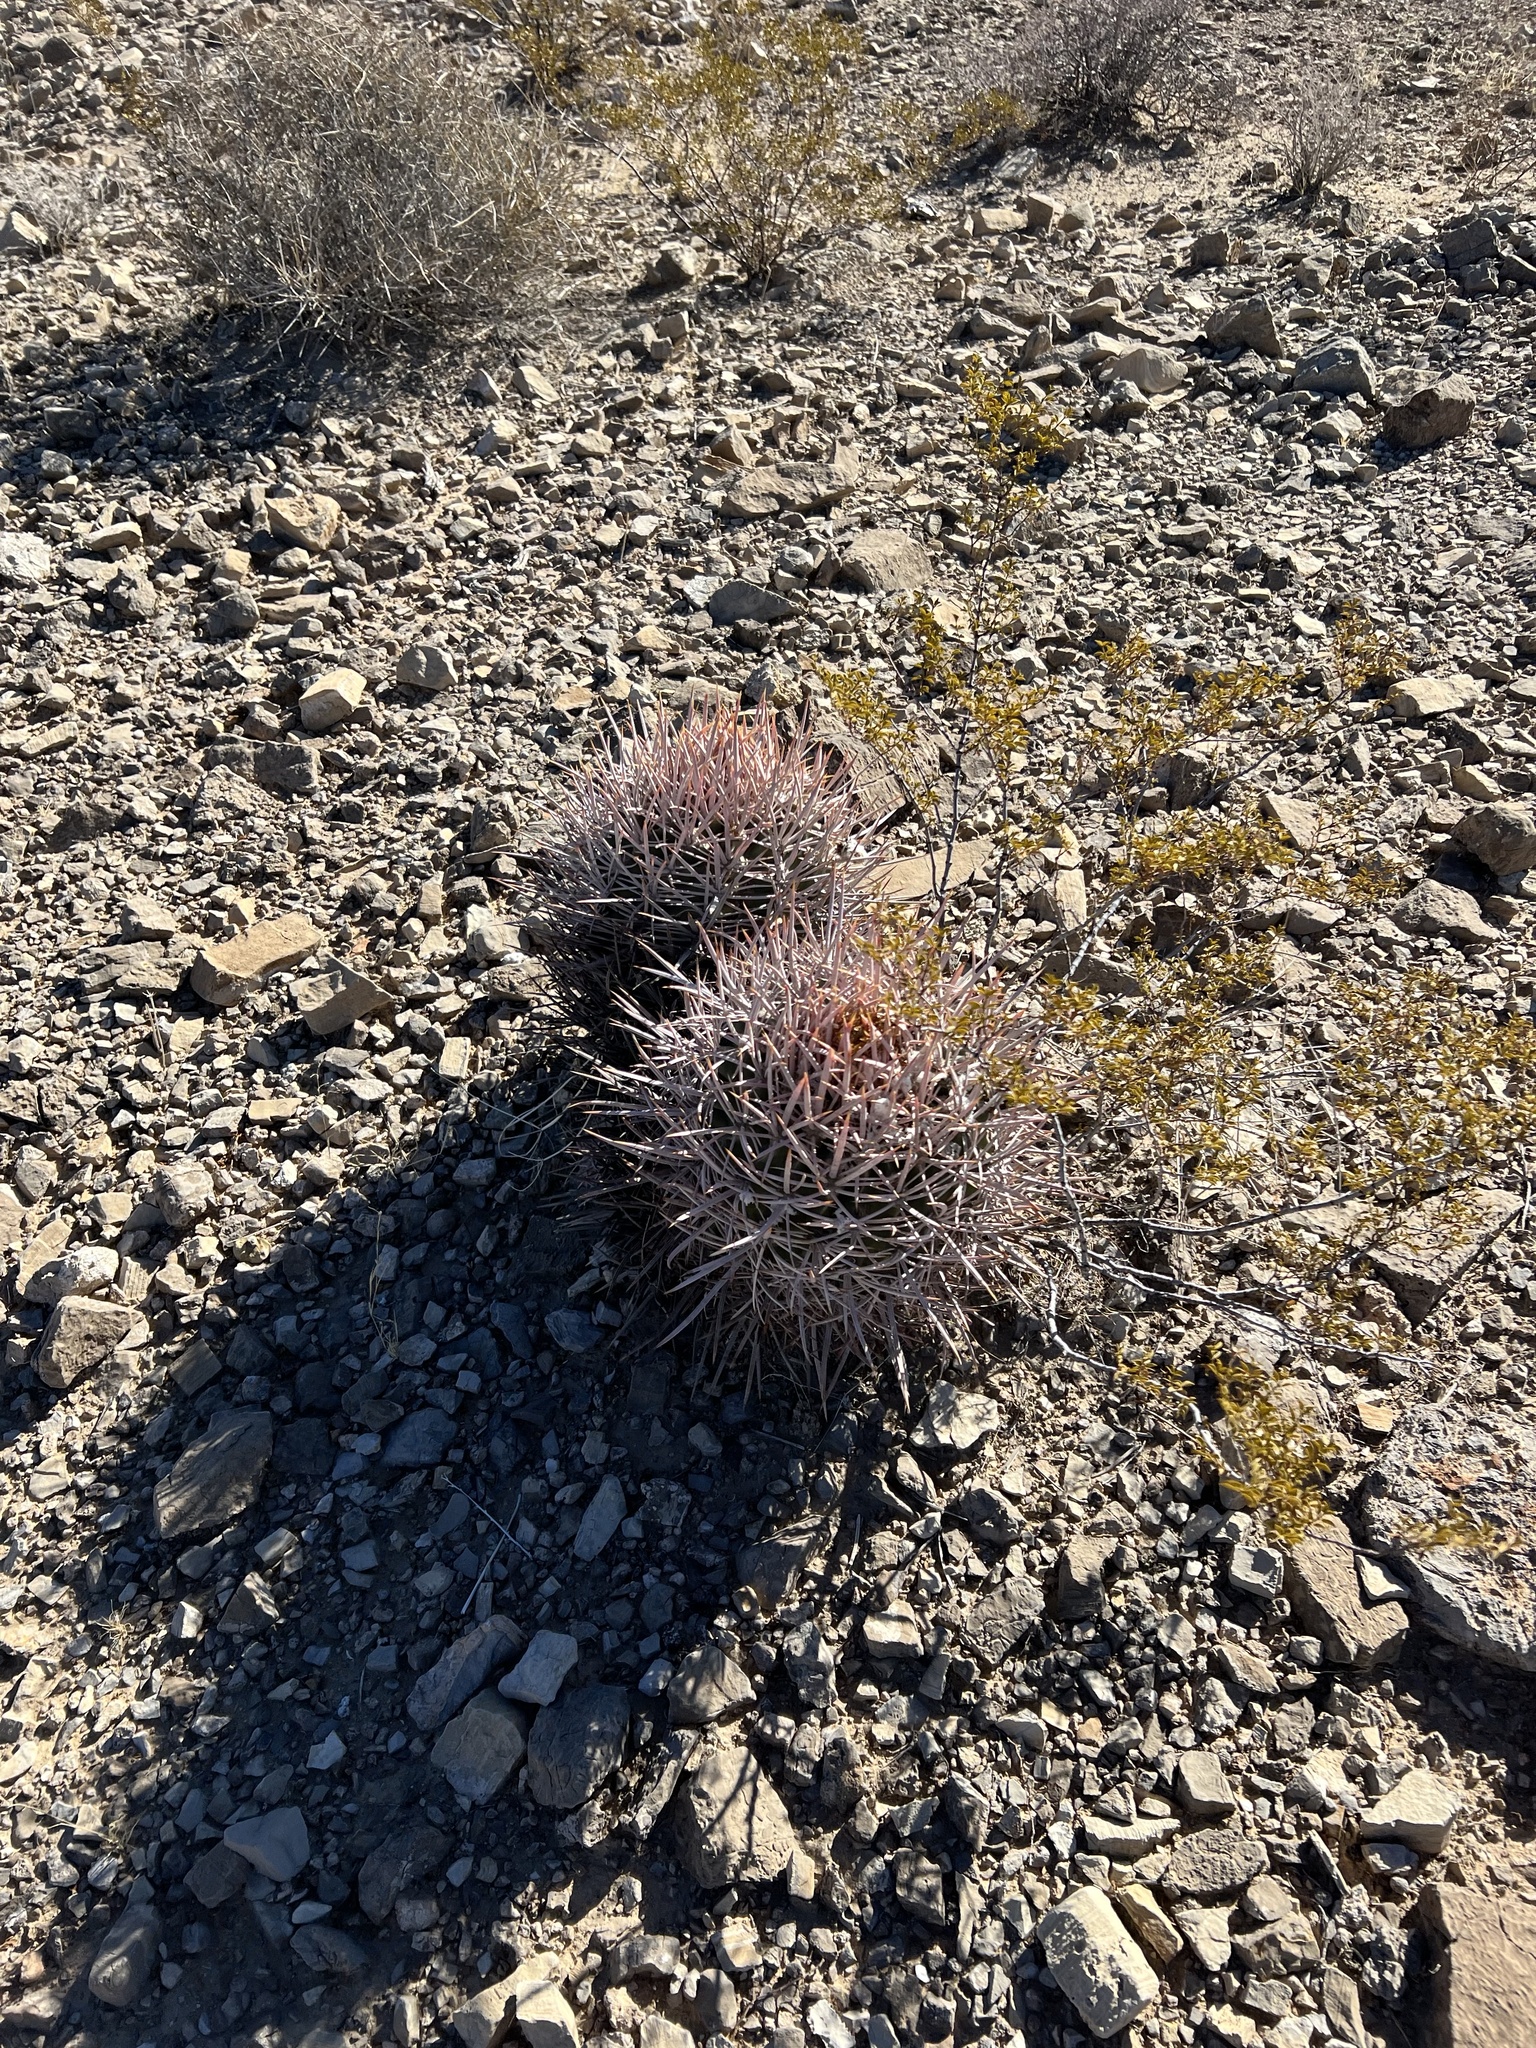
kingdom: Plantae
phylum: Tracheophyta
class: Magnoliopsida
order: Caryophyllales
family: Cactaceae
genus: Echinocactus
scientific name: Echinocactus polycephalus
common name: Cottontop cactus
